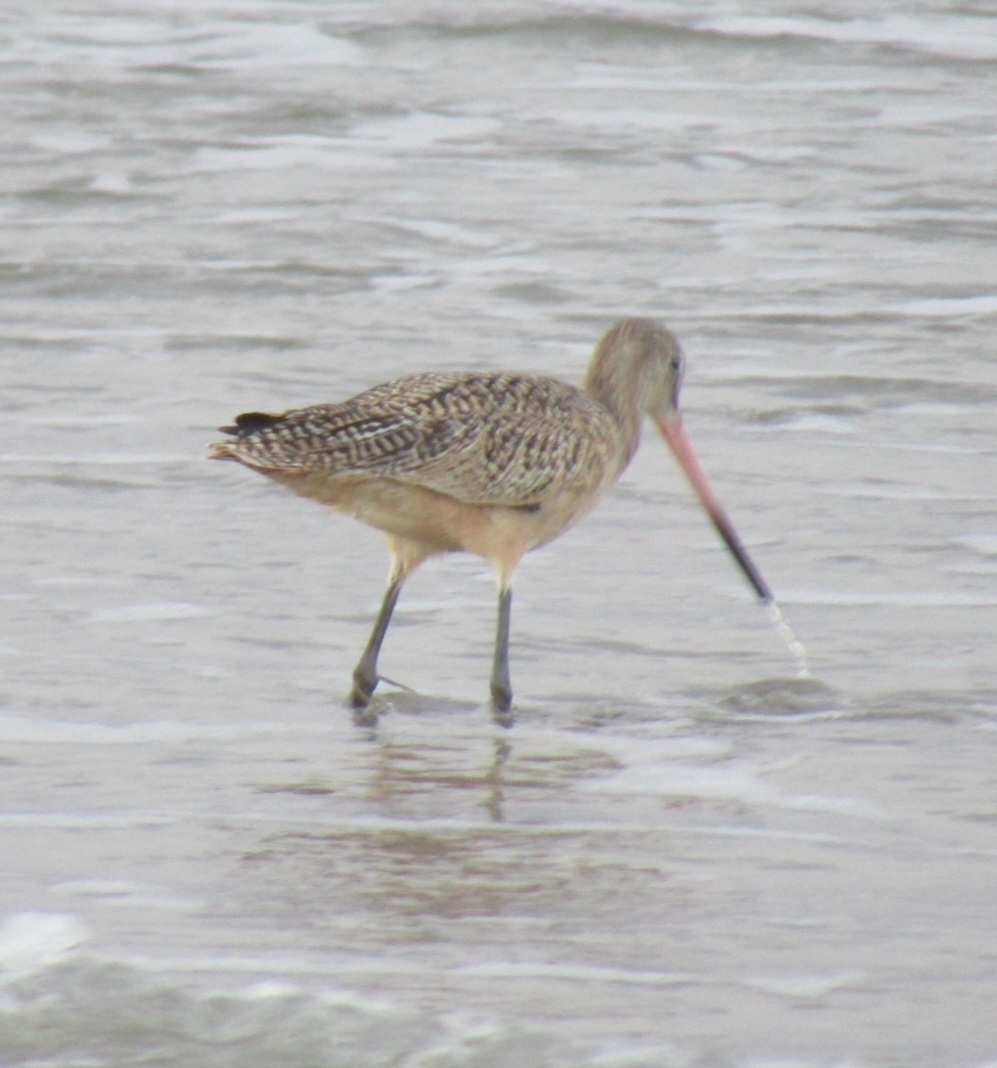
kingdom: Animalia
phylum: Chordata
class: Aves
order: Charadriiformes
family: Scolopacidae
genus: Limosa
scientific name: Limosa fedoa
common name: Marbled godwit
